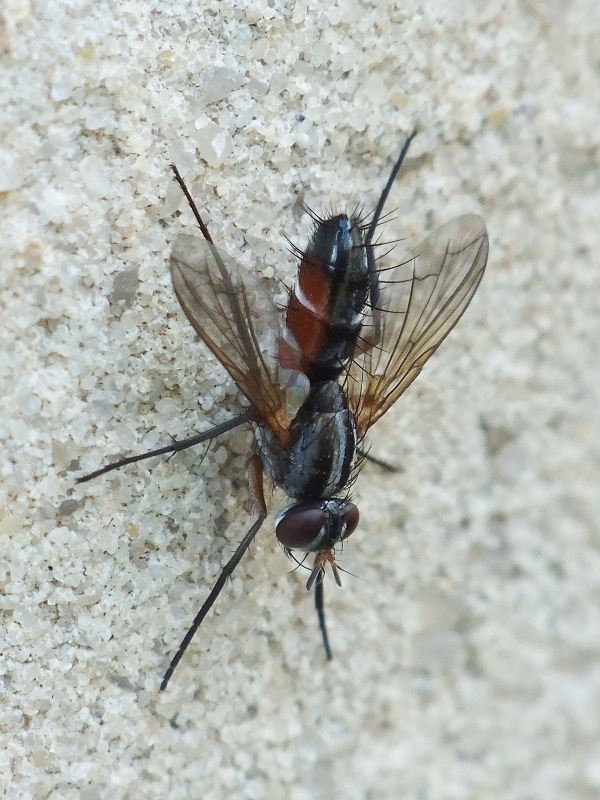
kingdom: Animalia
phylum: Arthropoda
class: Insecta
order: Diptera
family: Tachinidae
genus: Mintho
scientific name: Mintho rufiventris
